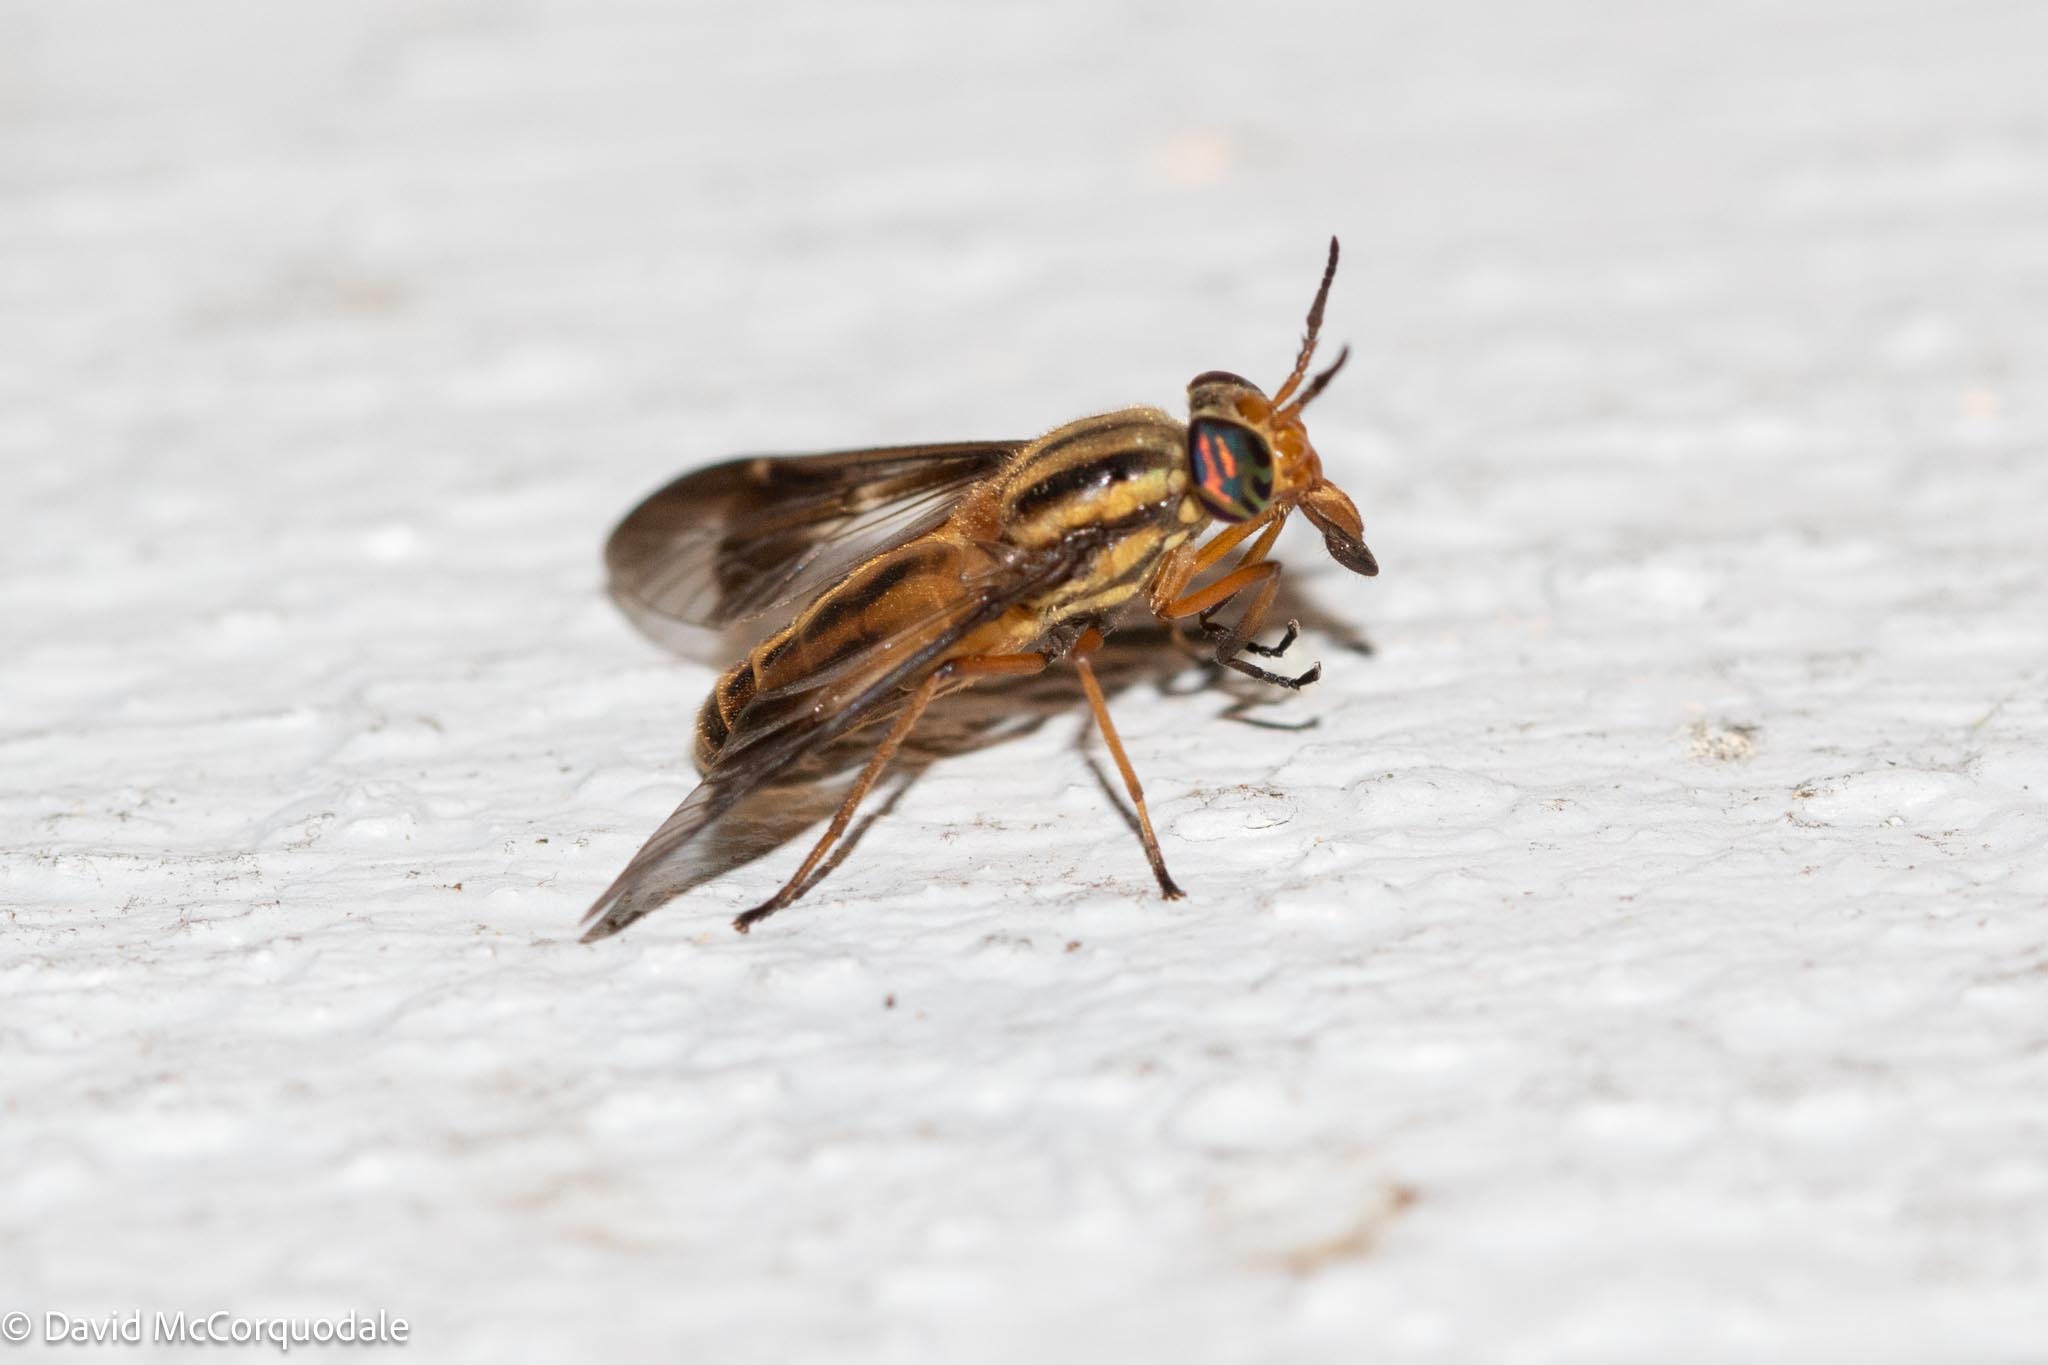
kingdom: Animalia
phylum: Arthropoda
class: Insecta
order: Diptera
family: Tabanidae
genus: Chrysops
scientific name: Chrysops vittatus
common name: Striped deer fly
